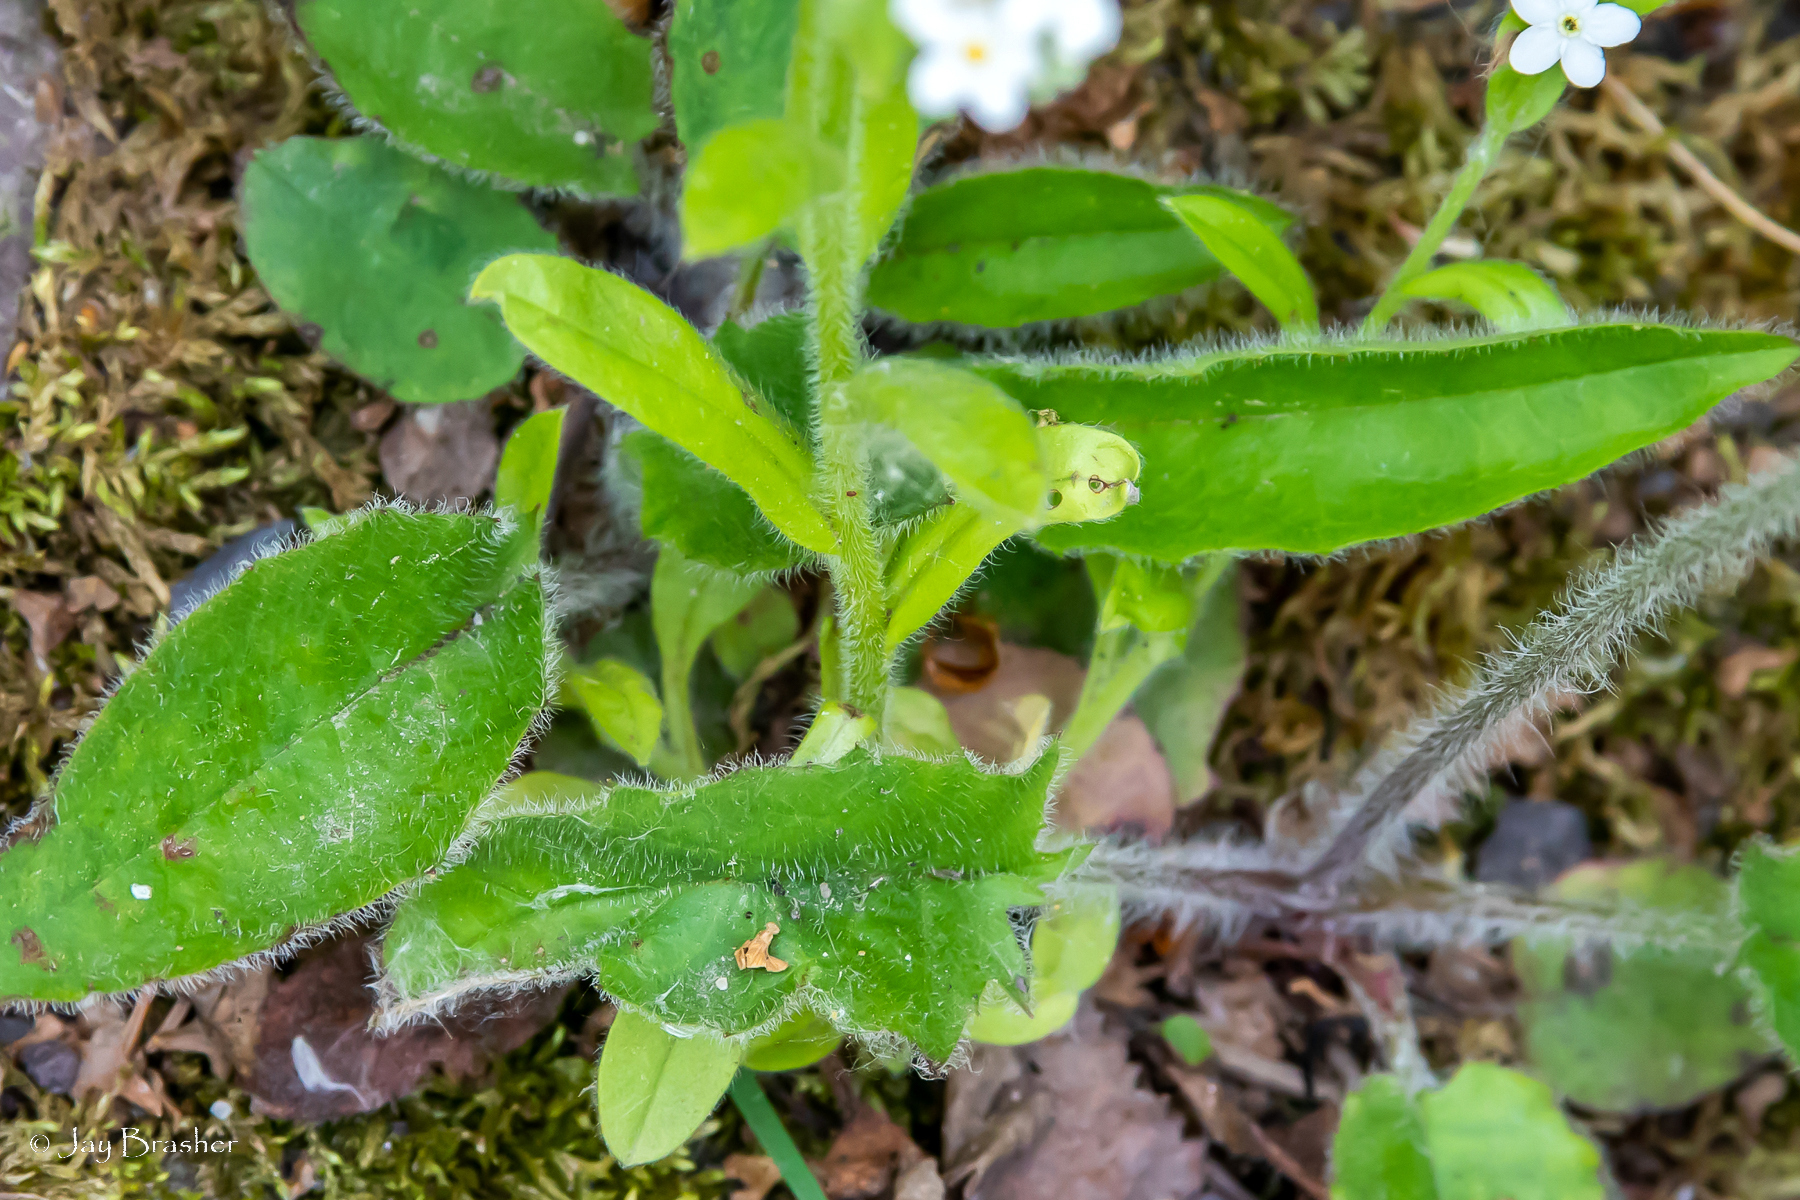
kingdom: Plantae
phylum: Tracheophyta
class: Magnoliopsida
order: Boraginales
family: Boraginaceae
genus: Myosotis
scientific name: Myosotis sylvatica
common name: Wood forget-me-not
